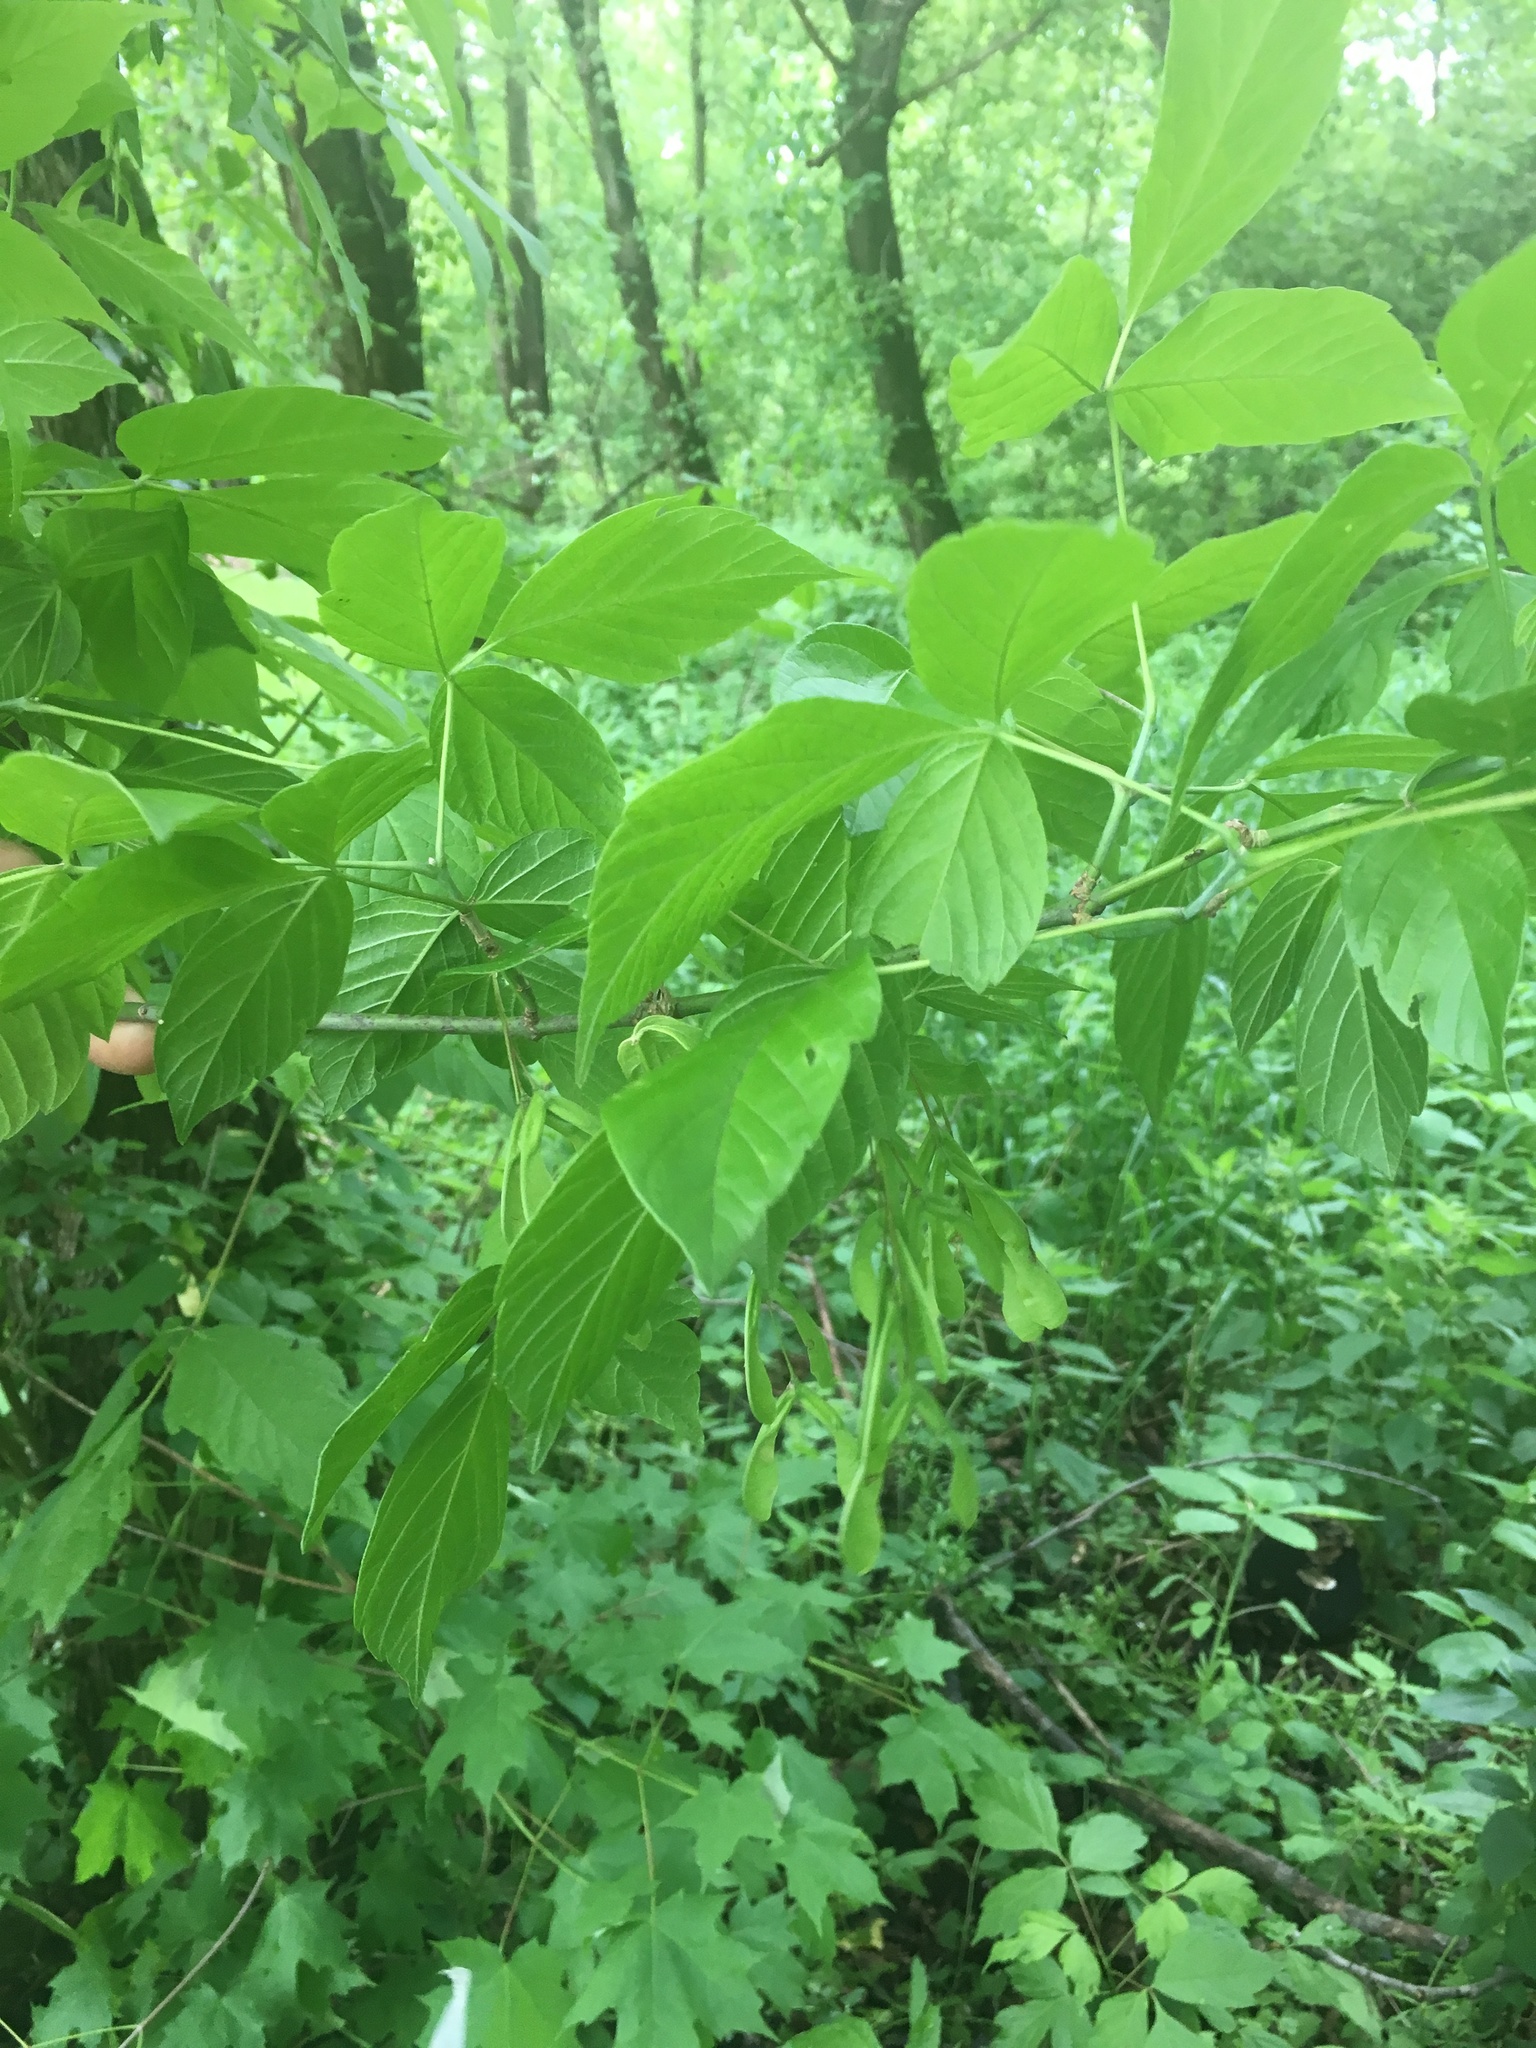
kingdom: Plantae
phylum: Tracheophyta
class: Magnoliopsida
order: Sapindales
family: Sapindaceae
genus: Acer
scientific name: Acer negundo
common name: Ashleaf maple
